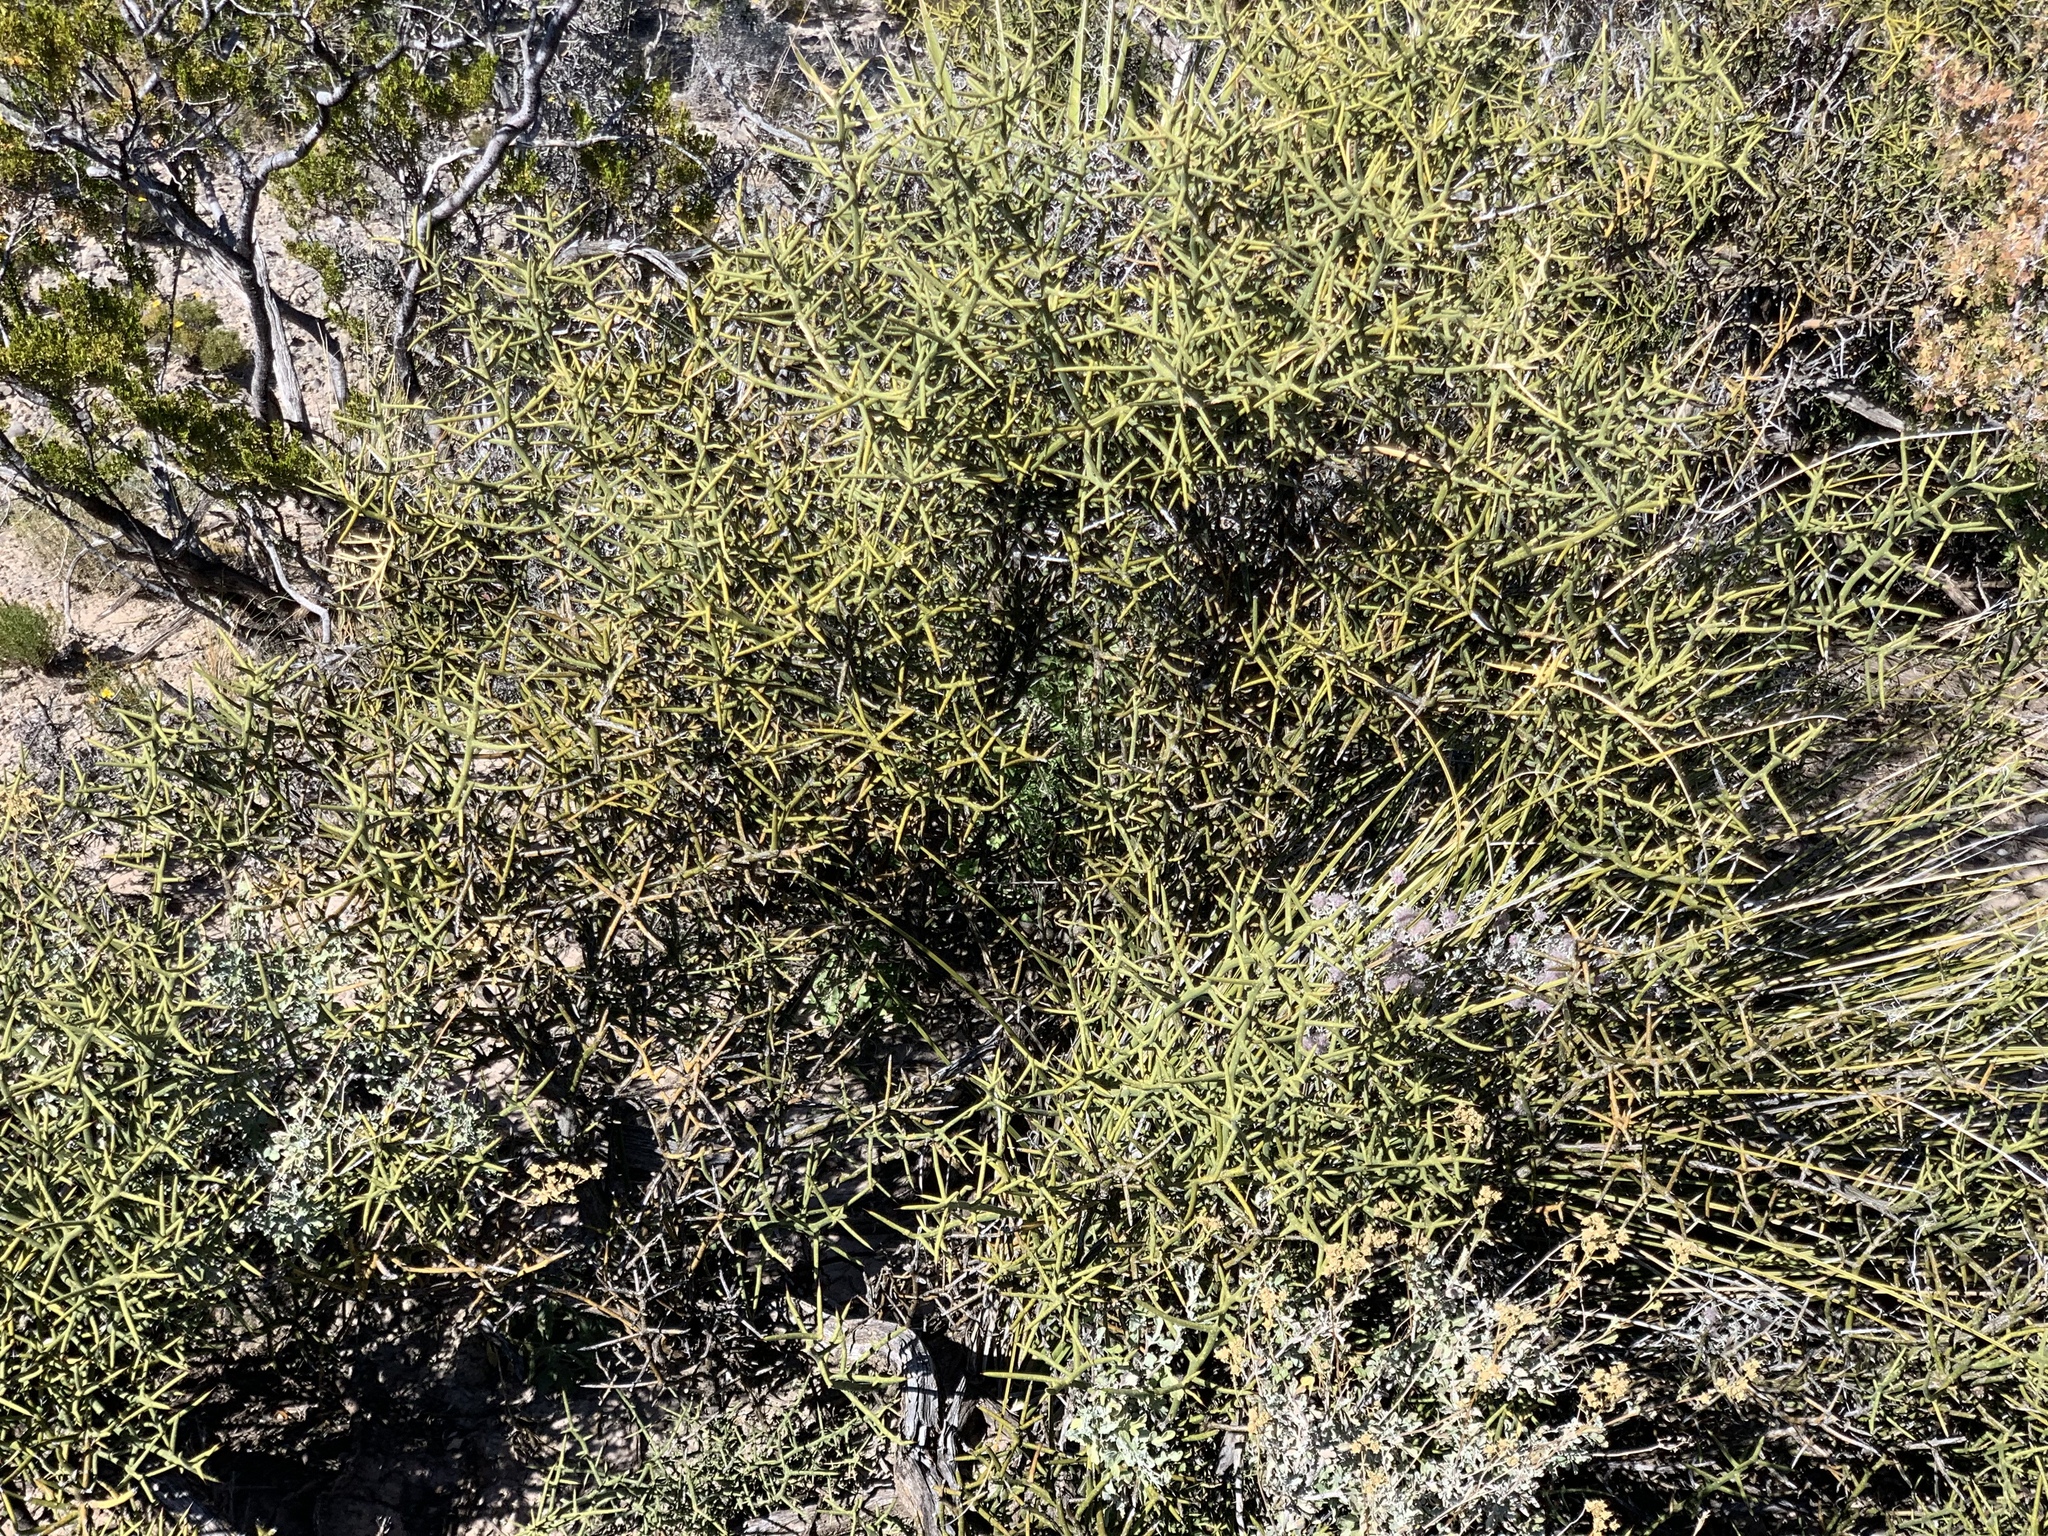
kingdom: Plantae
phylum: Tracheophyta
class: Magnoliopsida
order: Brassicales
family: Koeberliniaceae
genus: Koeberlinia
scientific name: Koeberlinia spinosa
